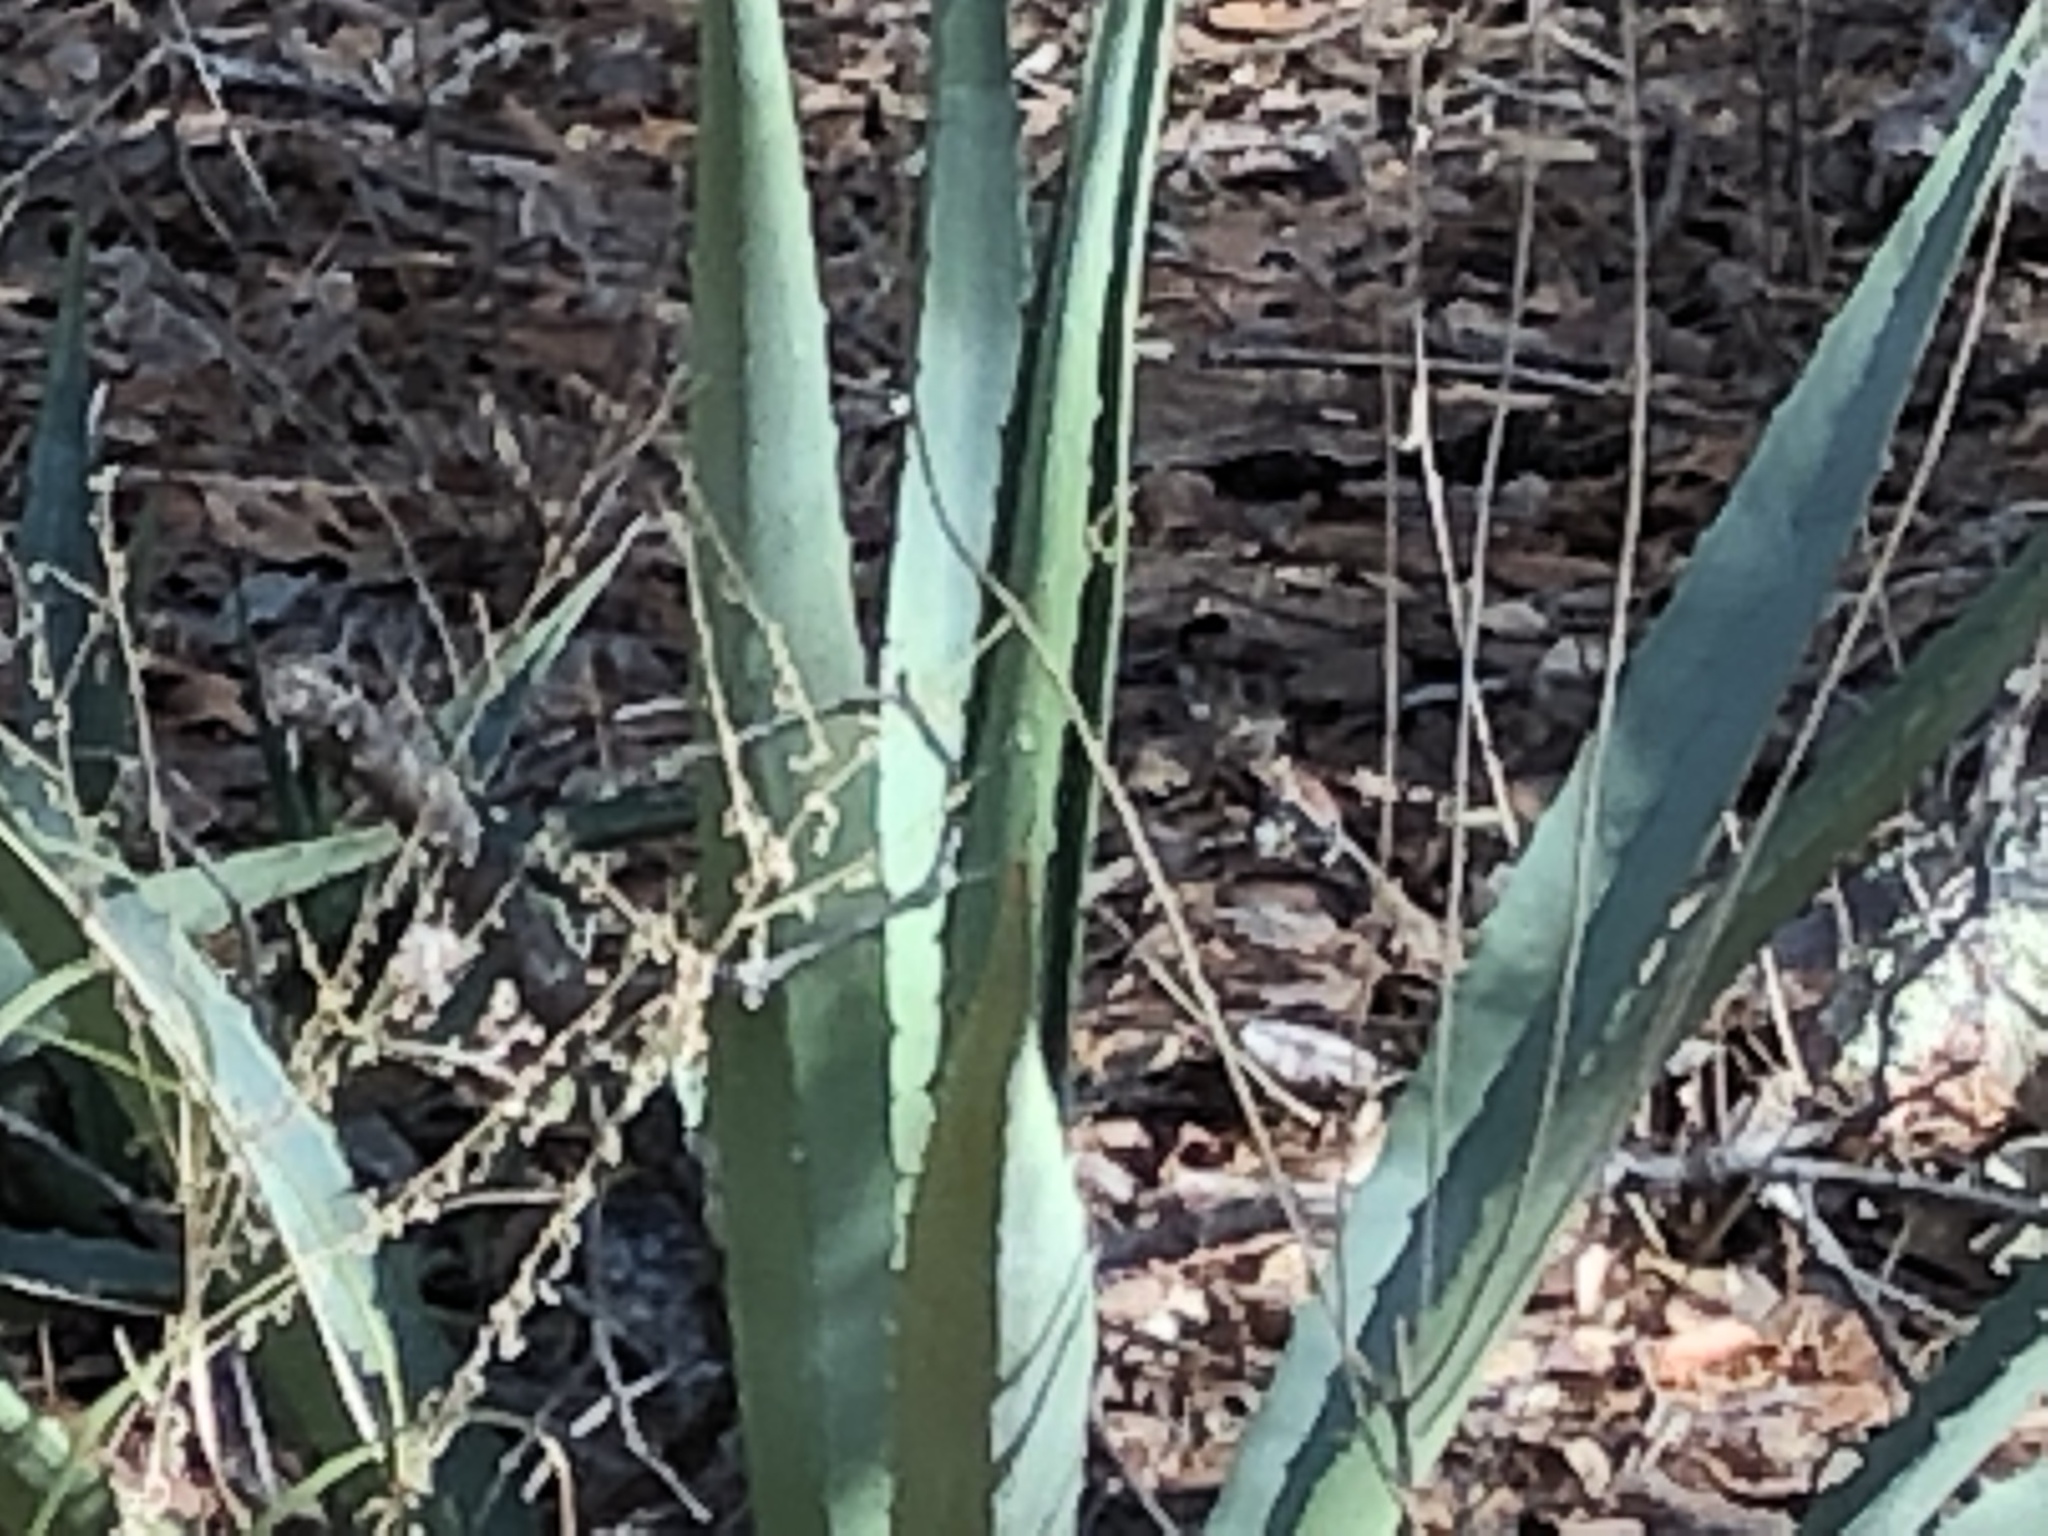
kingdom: Plantae
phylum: Tracheophyta
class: Liliopsida
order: Asparagales
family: Asparagaceae
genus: Agave
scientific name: Agave palmeri
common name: Palmer agave
